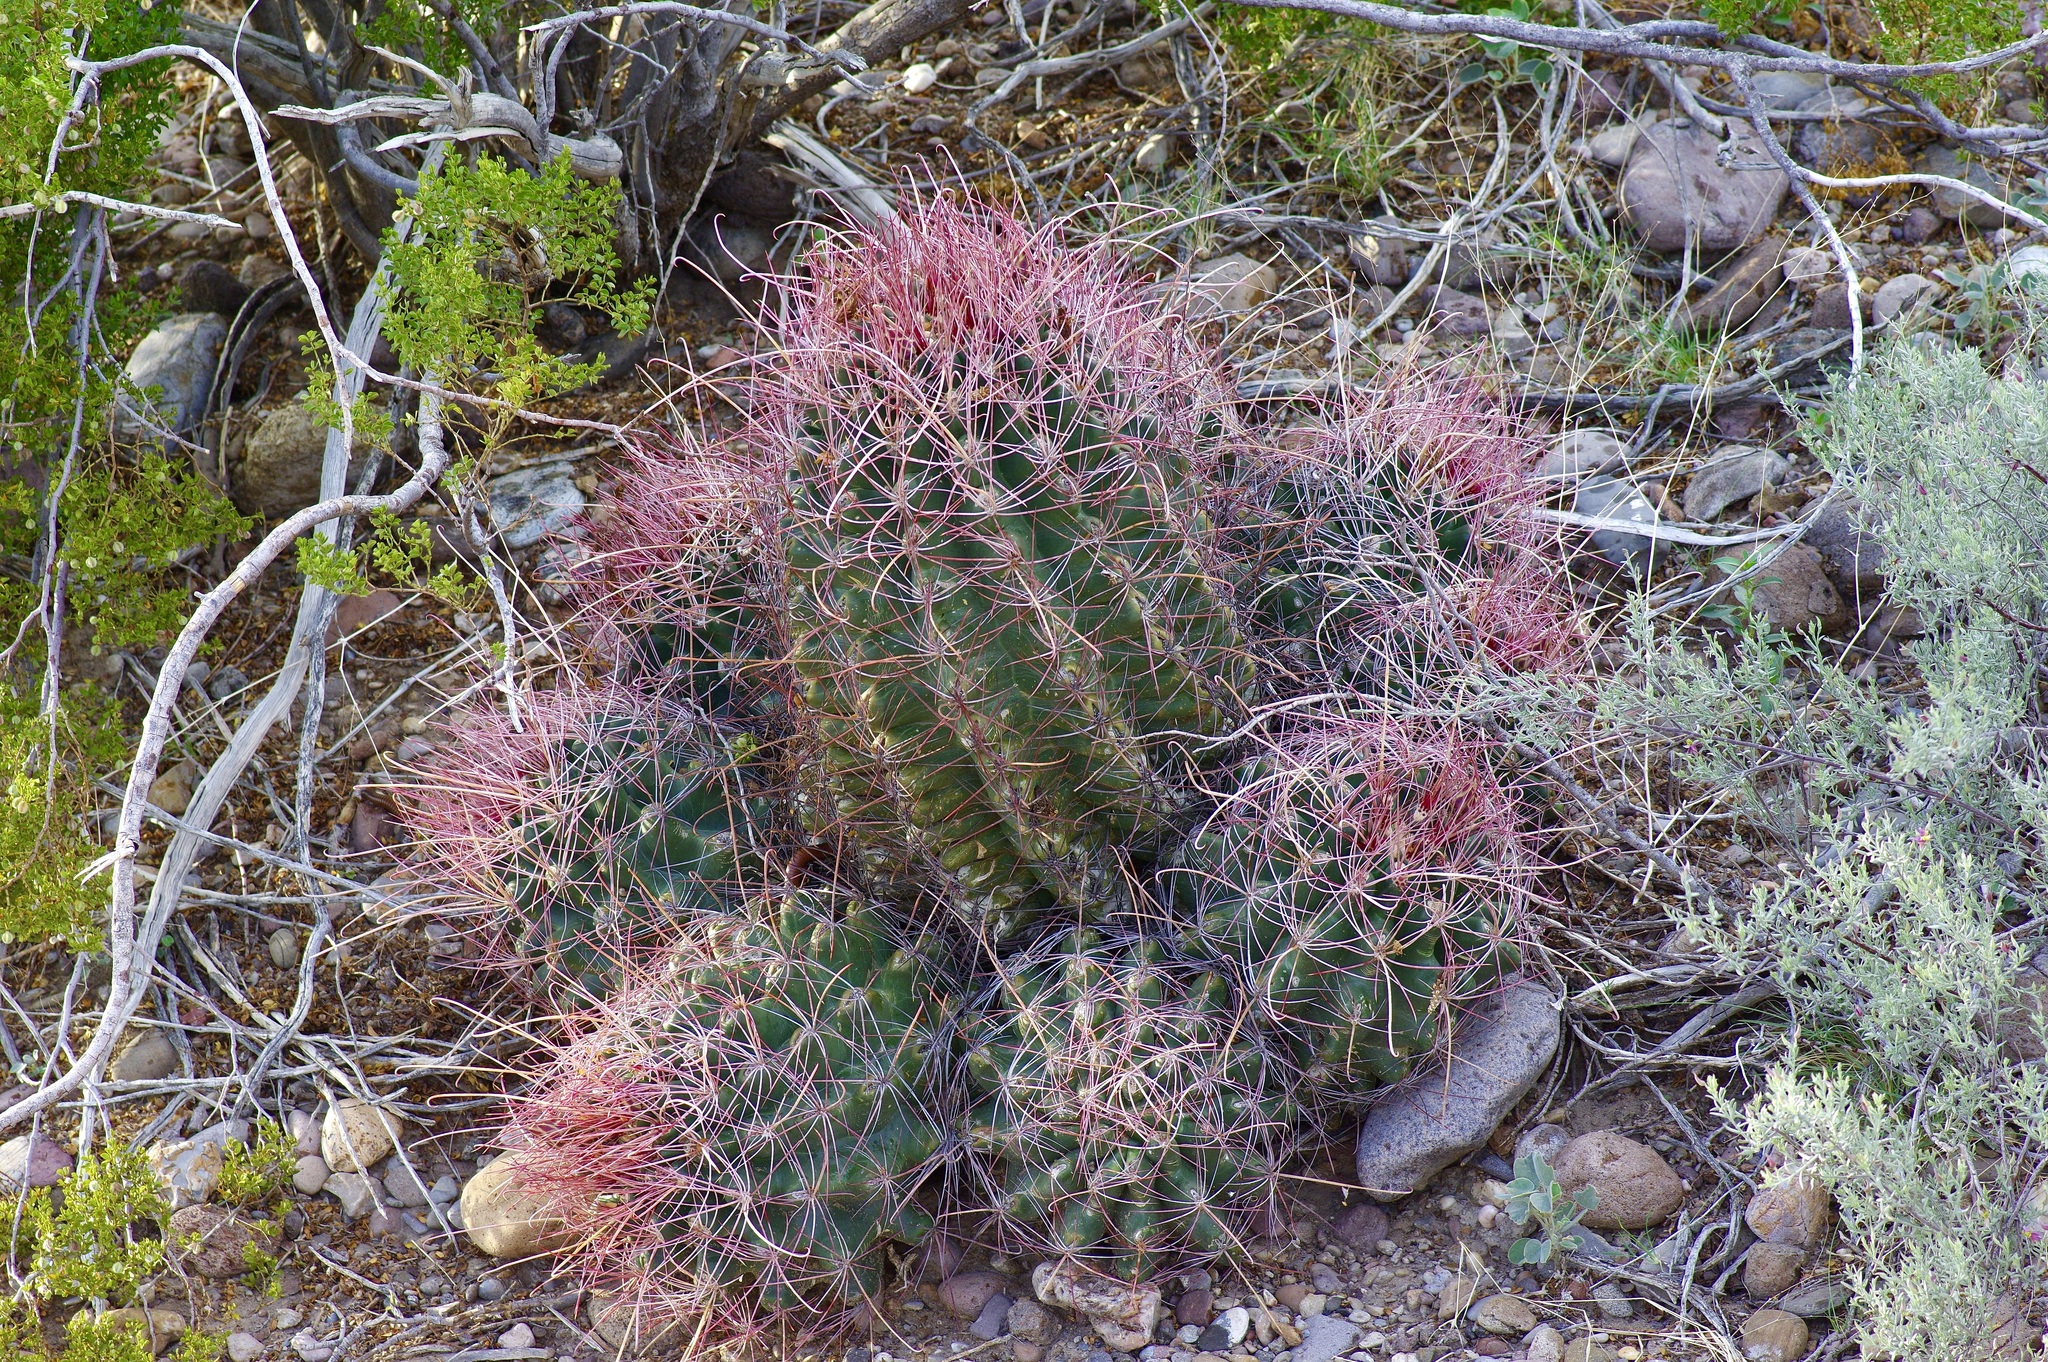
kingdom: Plantae
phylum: Tracheophyta
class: Magnoliopsida
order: Caryophyllales
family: Cactaceae
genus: Bisnaga
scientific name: Bisnaga hamatacantha
